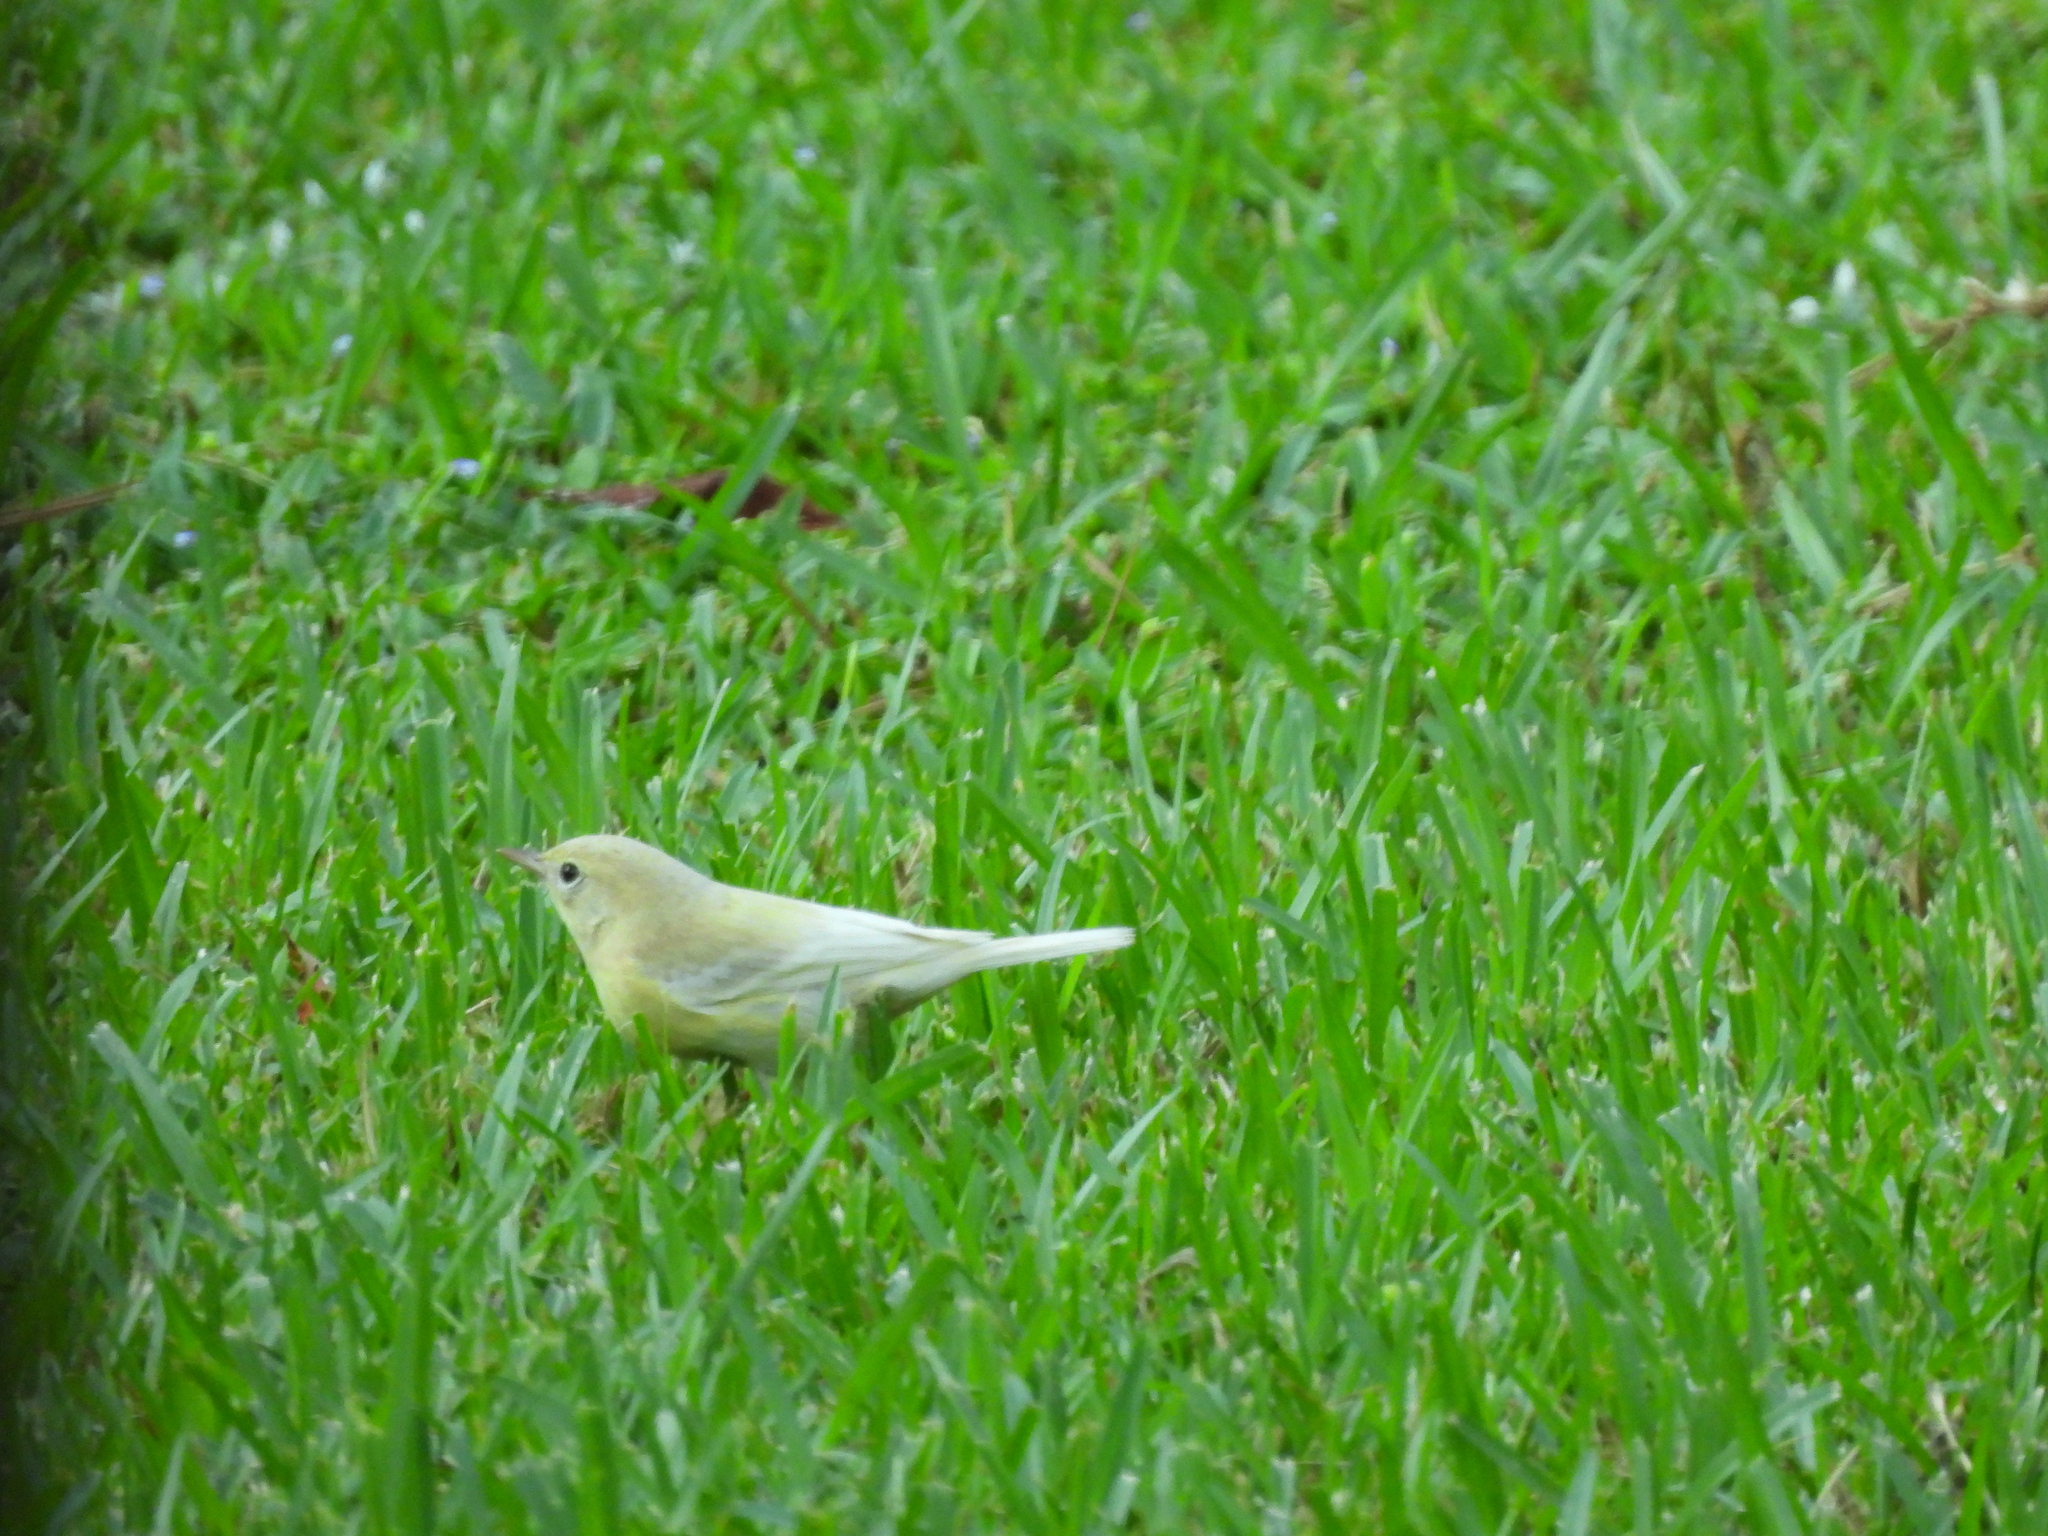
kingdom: Animalia
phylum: Chordata
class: Aves
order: Passeriformes
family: Parulidae
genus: Setophaga
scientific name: Setophaga pinus
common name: Pine warbler
